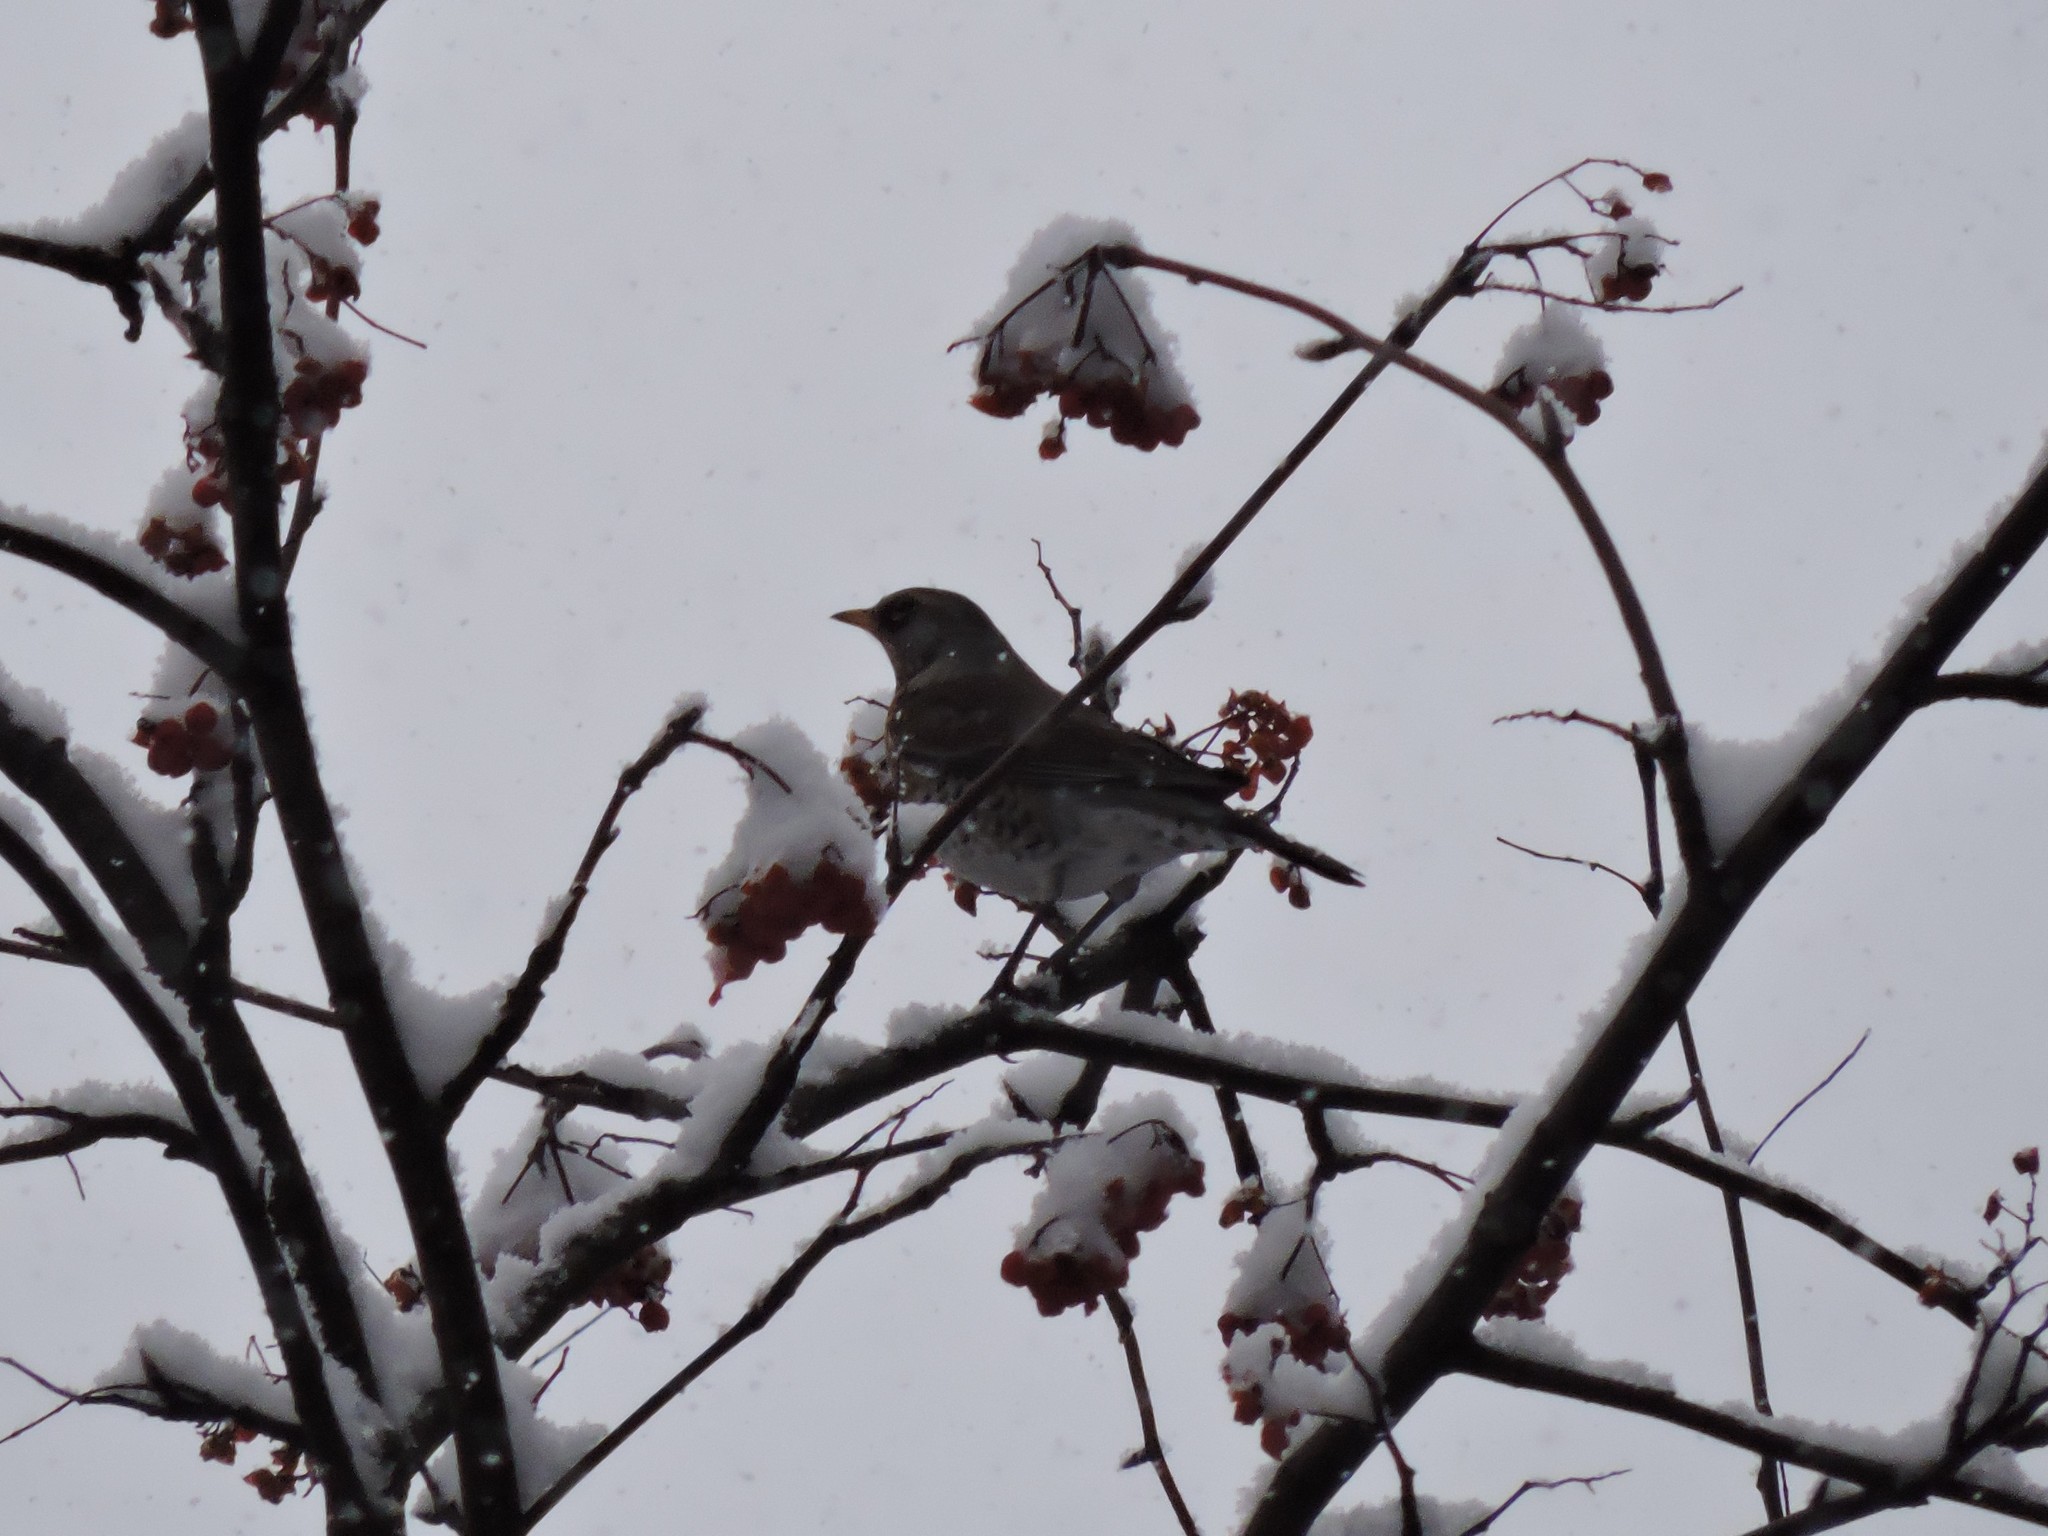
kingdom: Animalia
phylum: Chordata
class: Aves
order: Passeriformes
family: Turdidae
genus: Turdus
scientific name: Turdus pilaris
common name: Fieldfare
